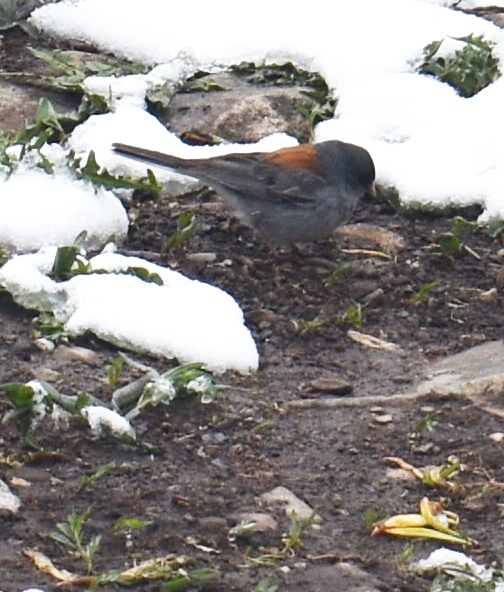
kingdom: Animalia
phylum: Chordata
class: Aves
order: Passeriformes
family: Passerellidae
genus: Junco
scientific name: Junco hyemalis
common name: Dark-eyed junco
